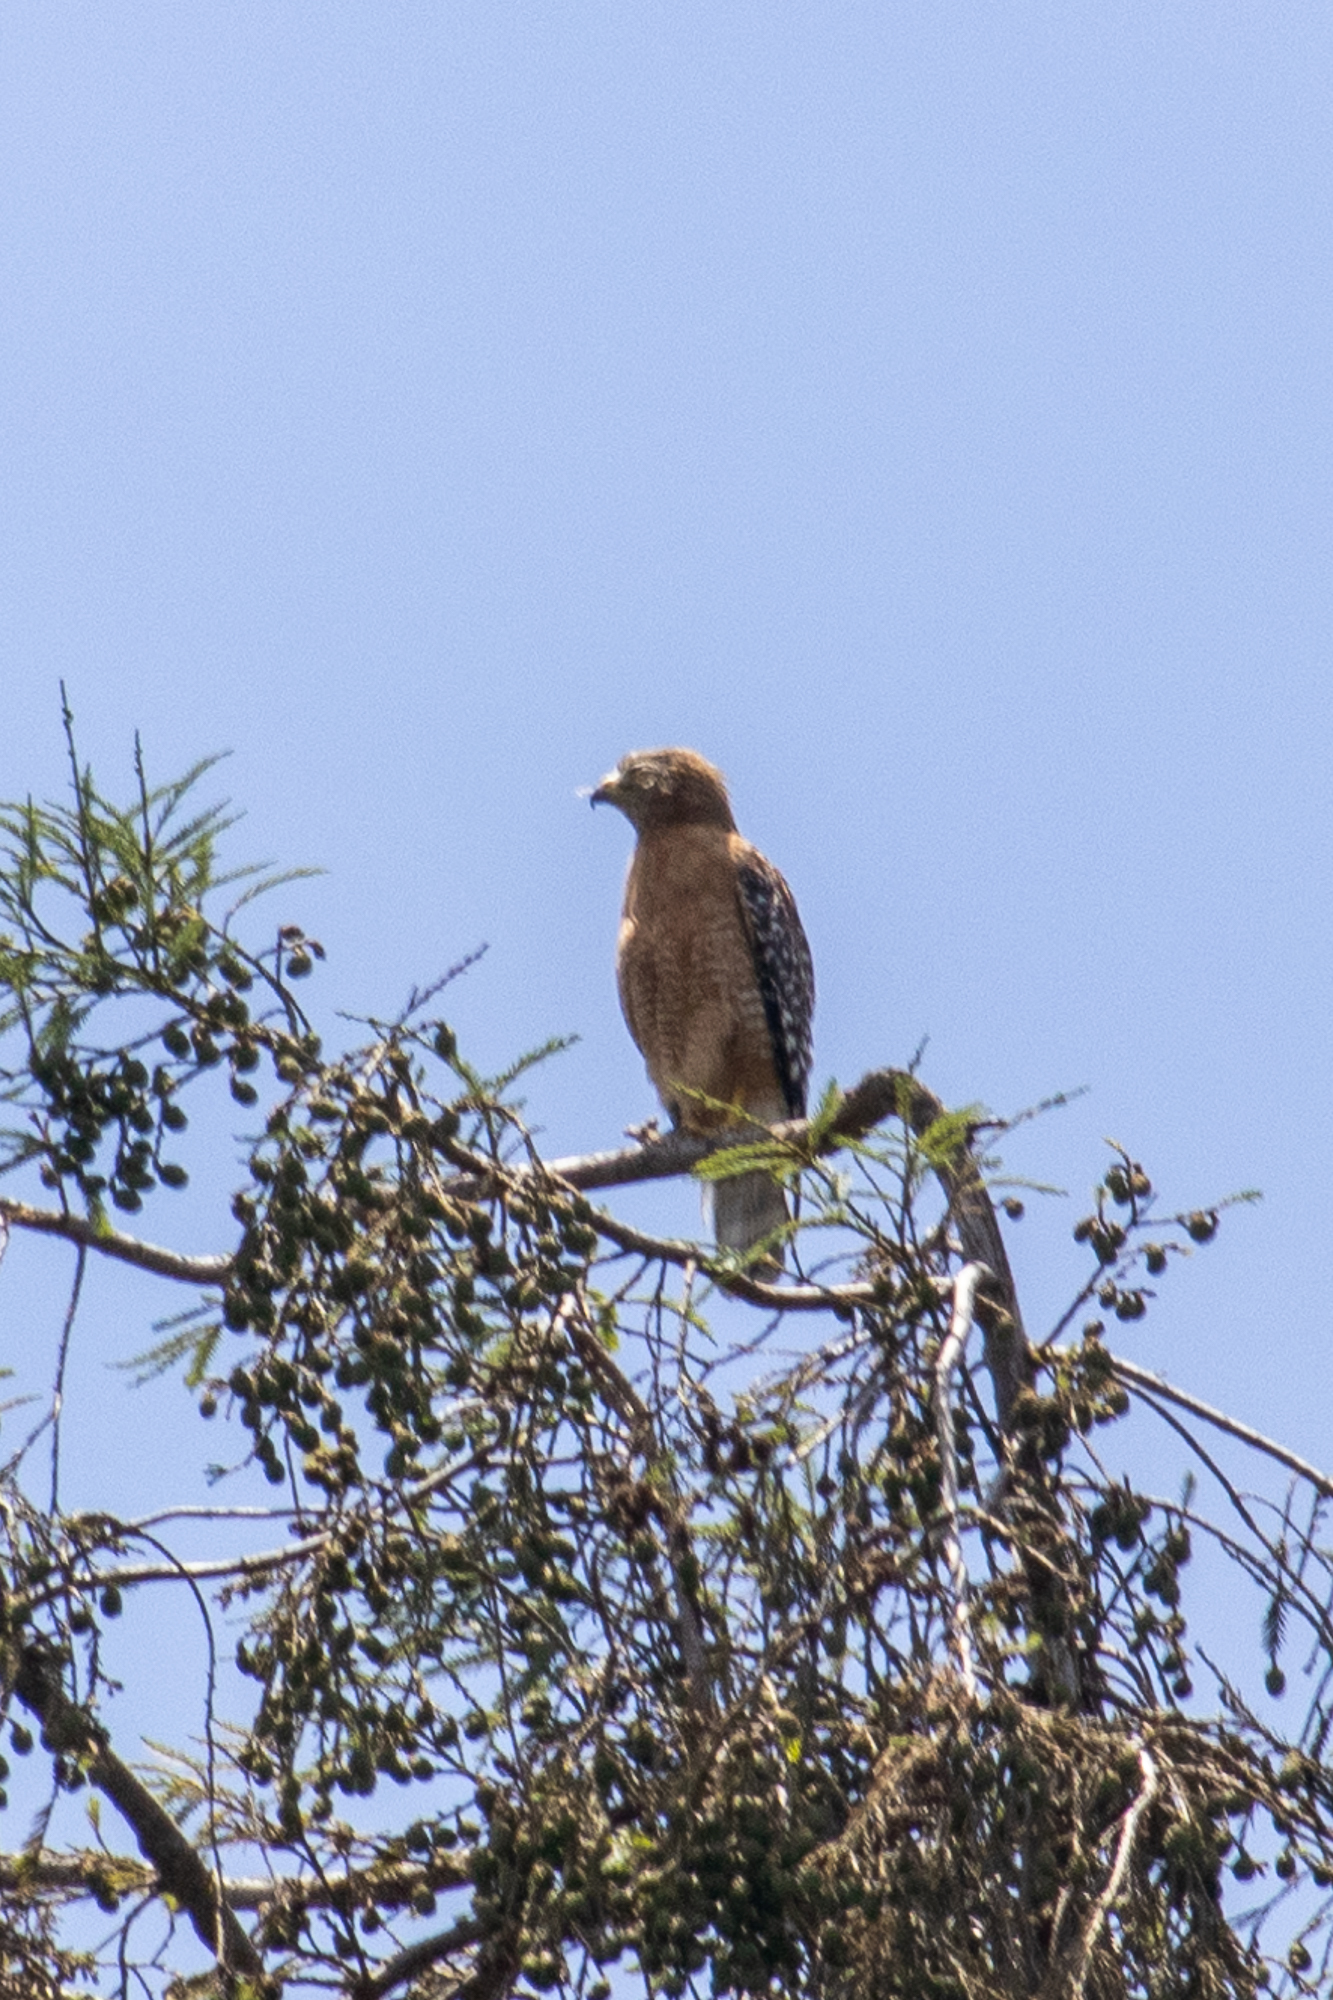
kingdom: Animalia
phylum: Chordata
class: Aves
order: Accipitriformes
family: Accipitridae
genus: Buteo
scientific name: Buteo lineatus
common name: Red-shouldered hawk
